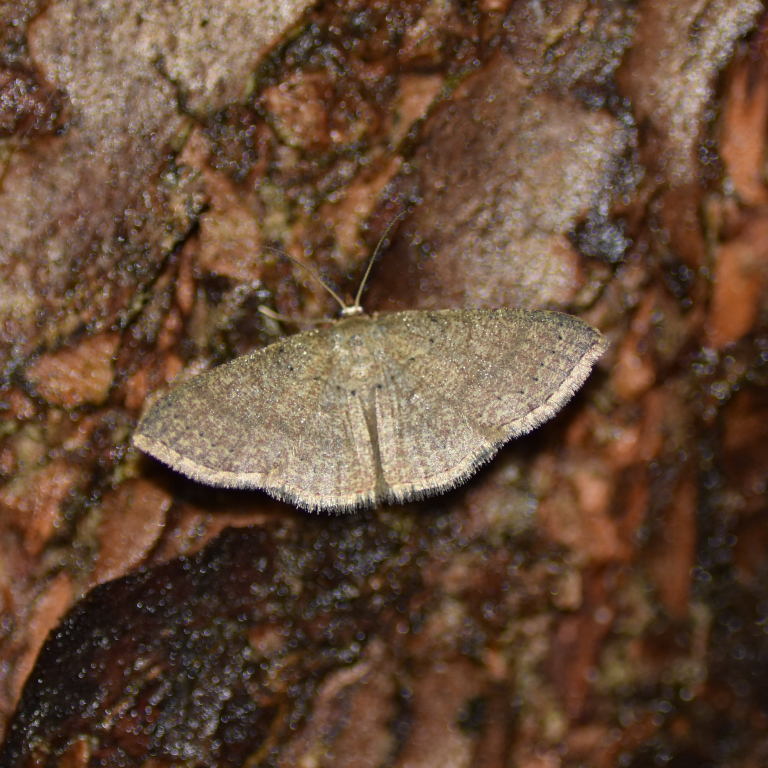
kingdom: Animalia
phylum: Arthropoda
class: Insecta
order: Lepidoptera
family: Geometridae
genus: Pleuroprucha
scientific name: Pleuroprucha insulsaria
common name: Common tan wave
